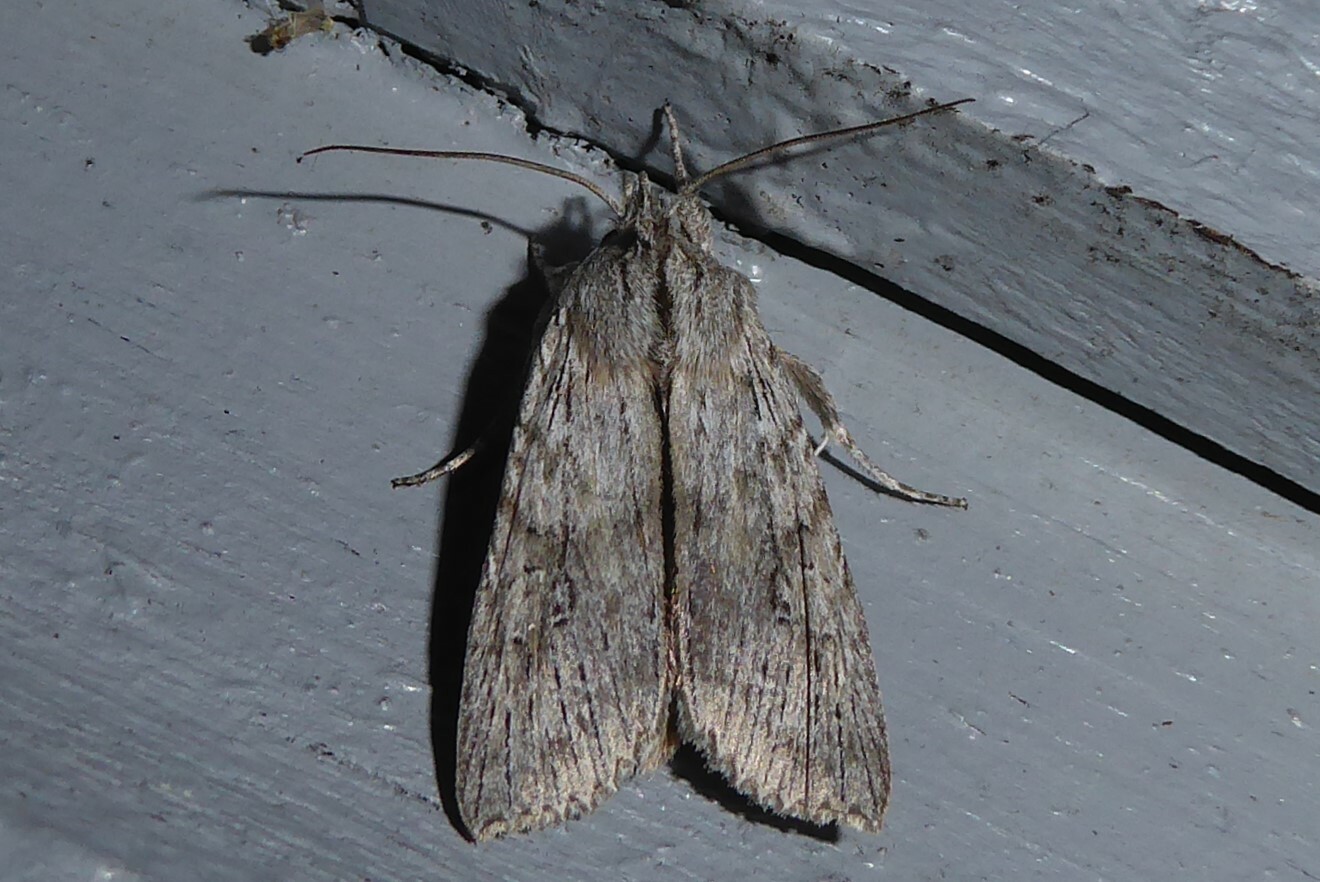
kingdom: Animalia
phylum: Arthropoda
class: Insecta
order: Lepidoptera
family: Noctuidae
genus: Physetica
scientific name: Physetica phricias
